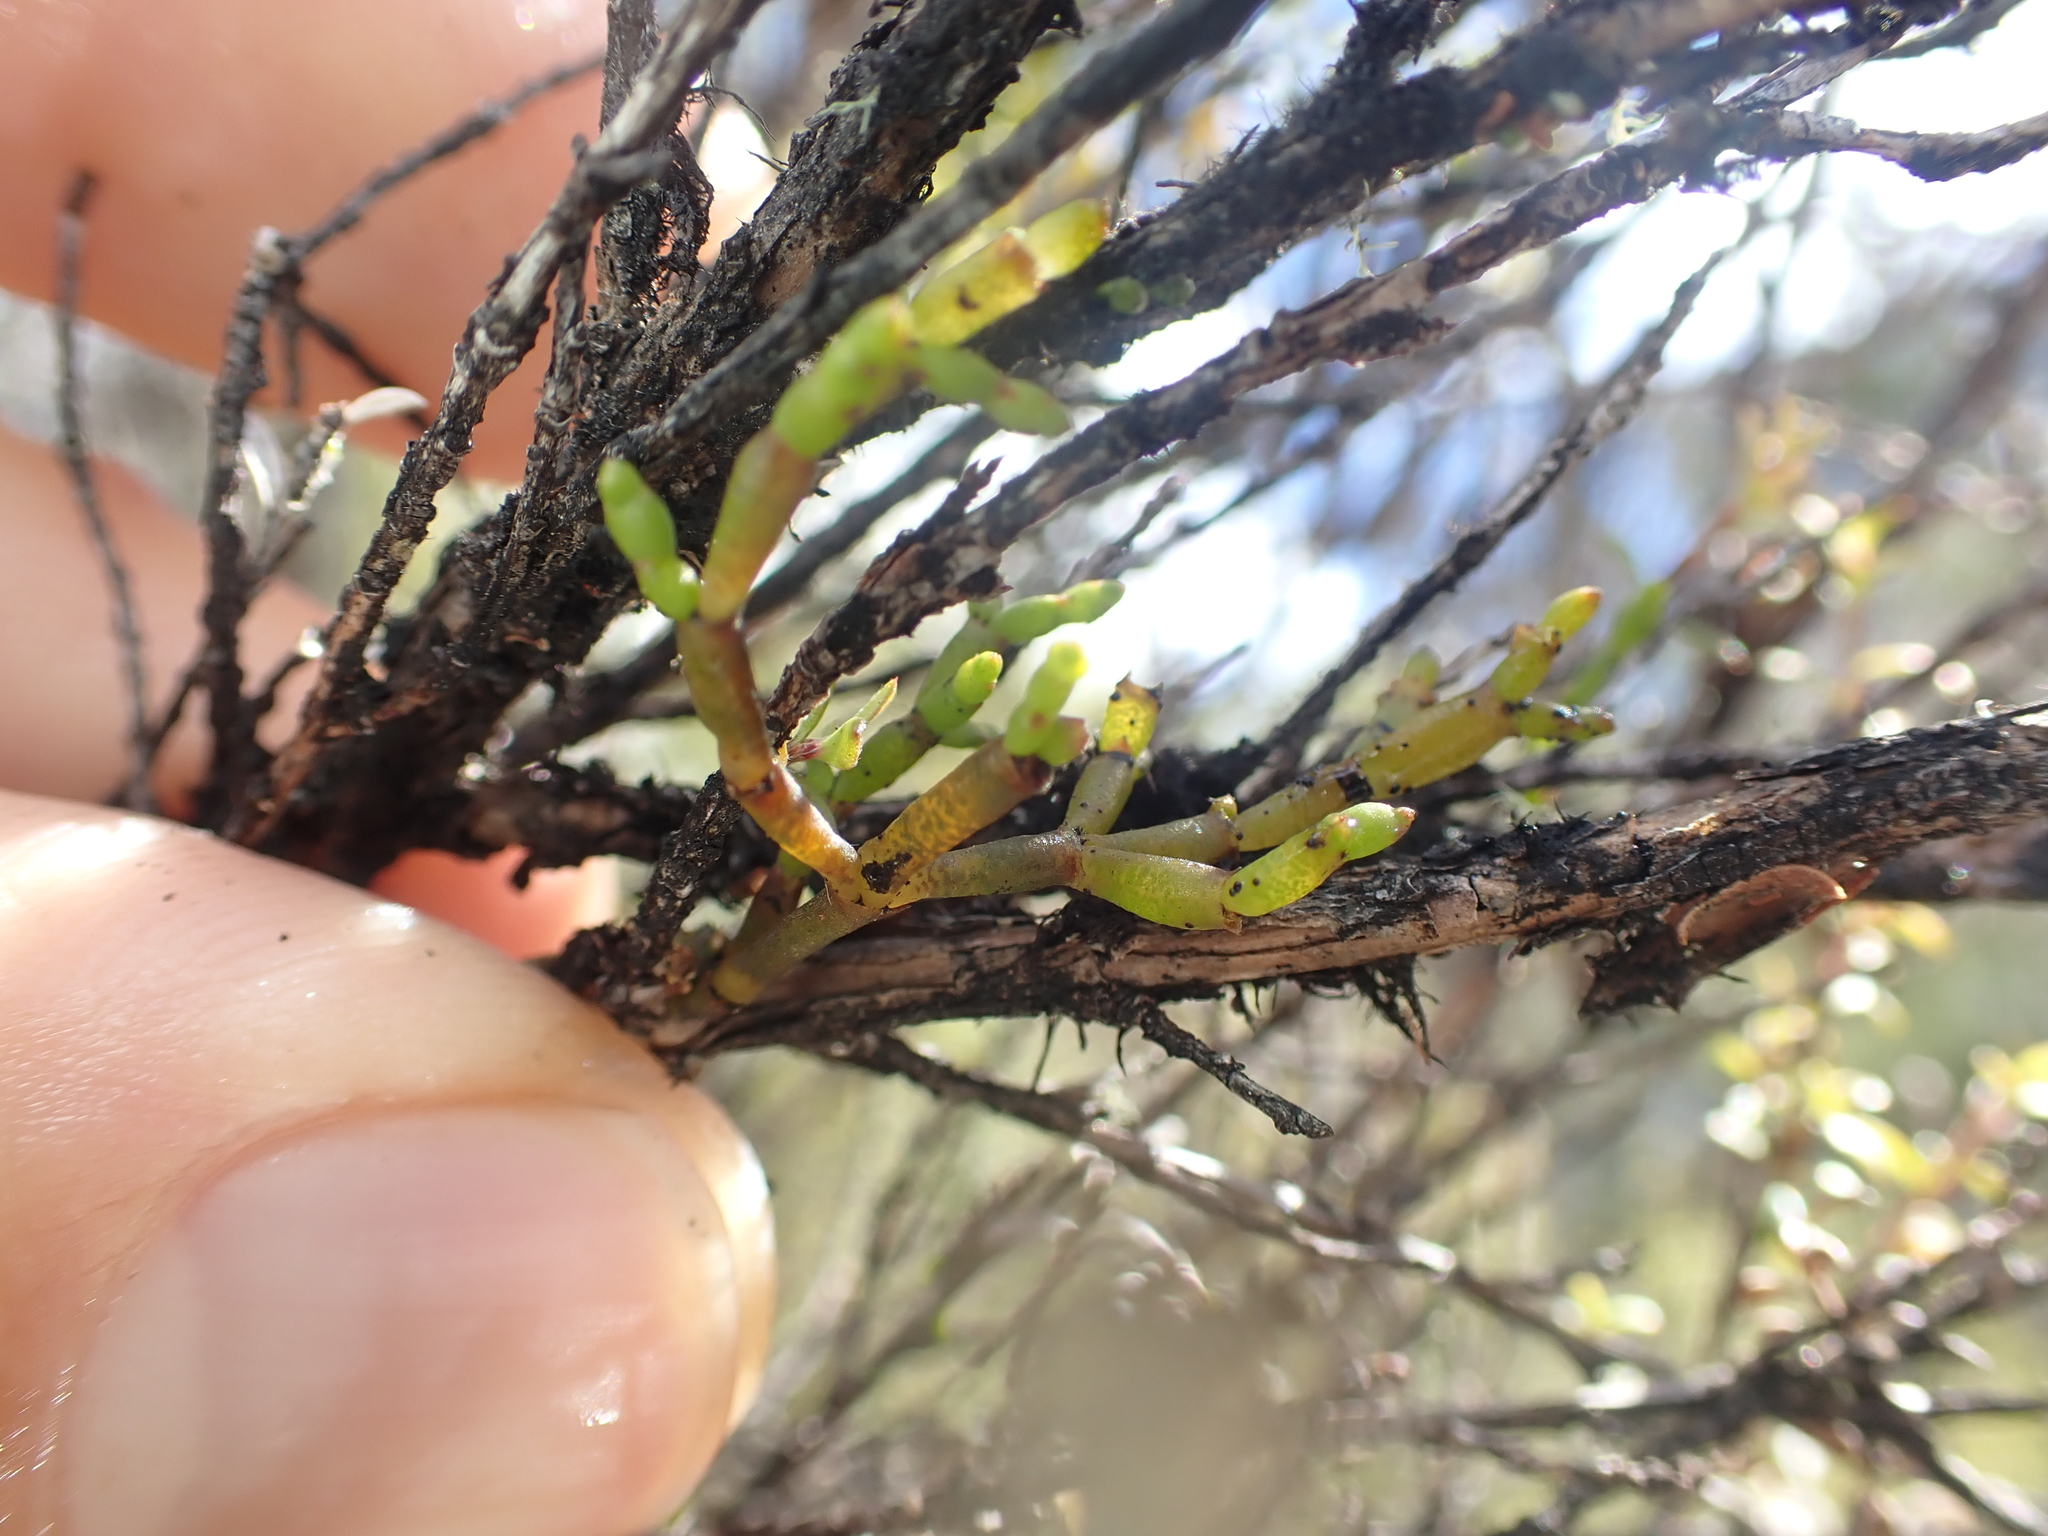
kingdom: Plantae
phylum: Tracheophyta
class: Magnoliopsida
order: Santalales
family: Viscaceae
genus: Korthalsella
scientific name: Korthalsella salicornioides
